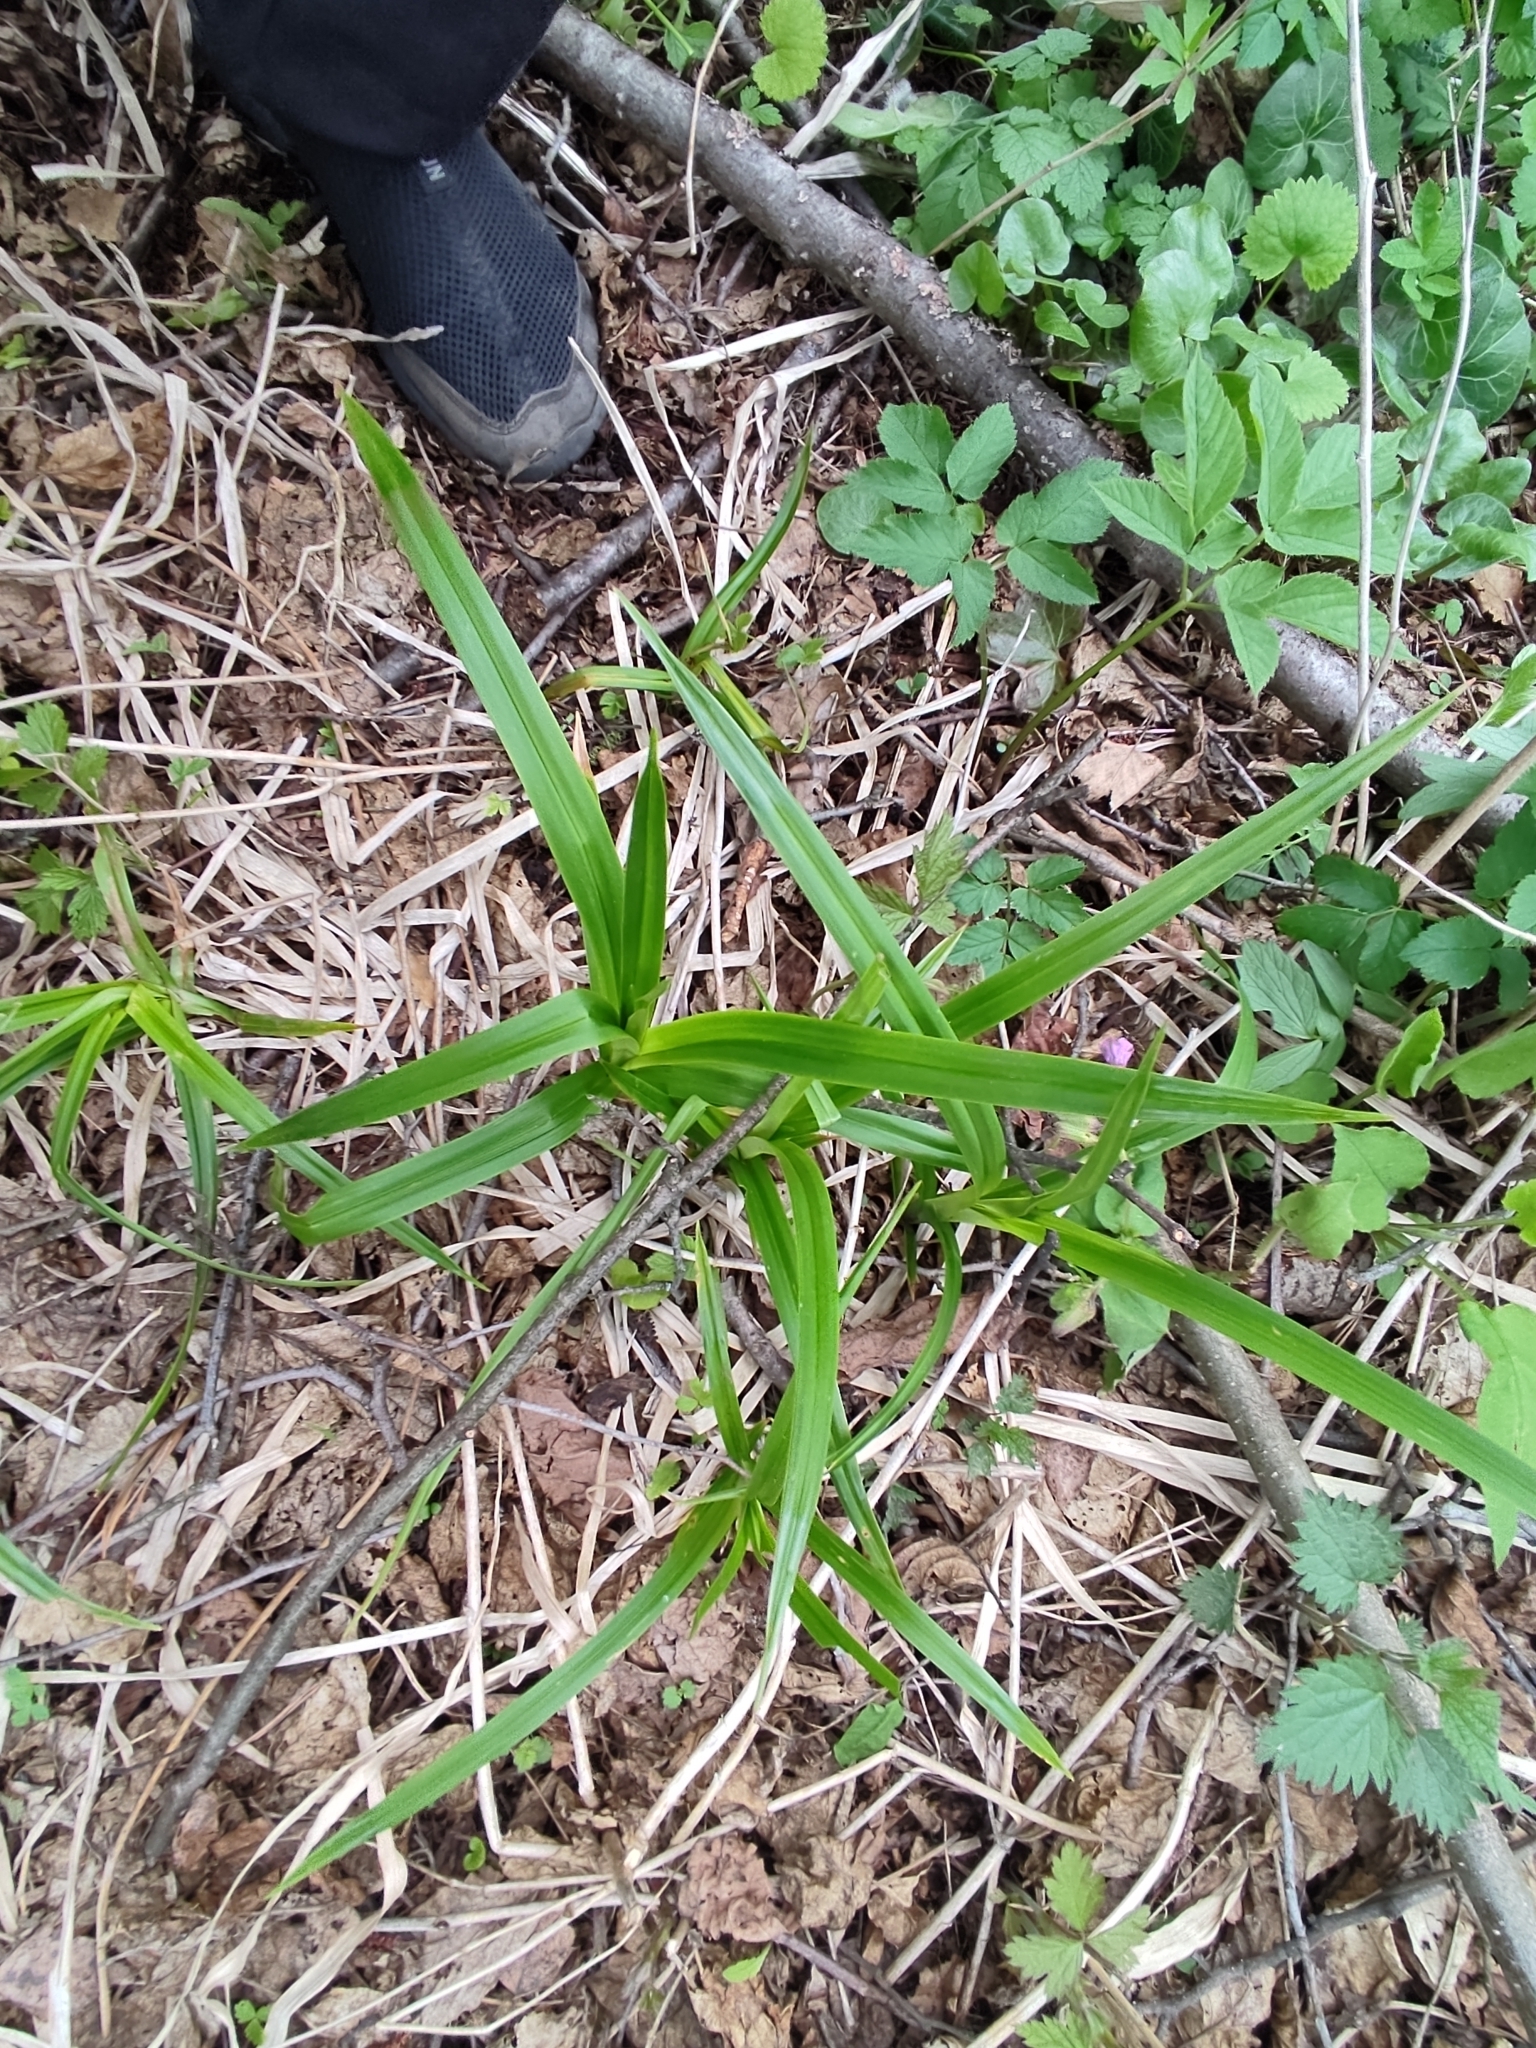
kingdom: Plantae
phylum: Tracheophyta
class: Liliopsida
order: Poales
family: Cyperaceae
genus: Scirpus
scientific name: Scirpus sylvaticus
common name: Wood club-rush
